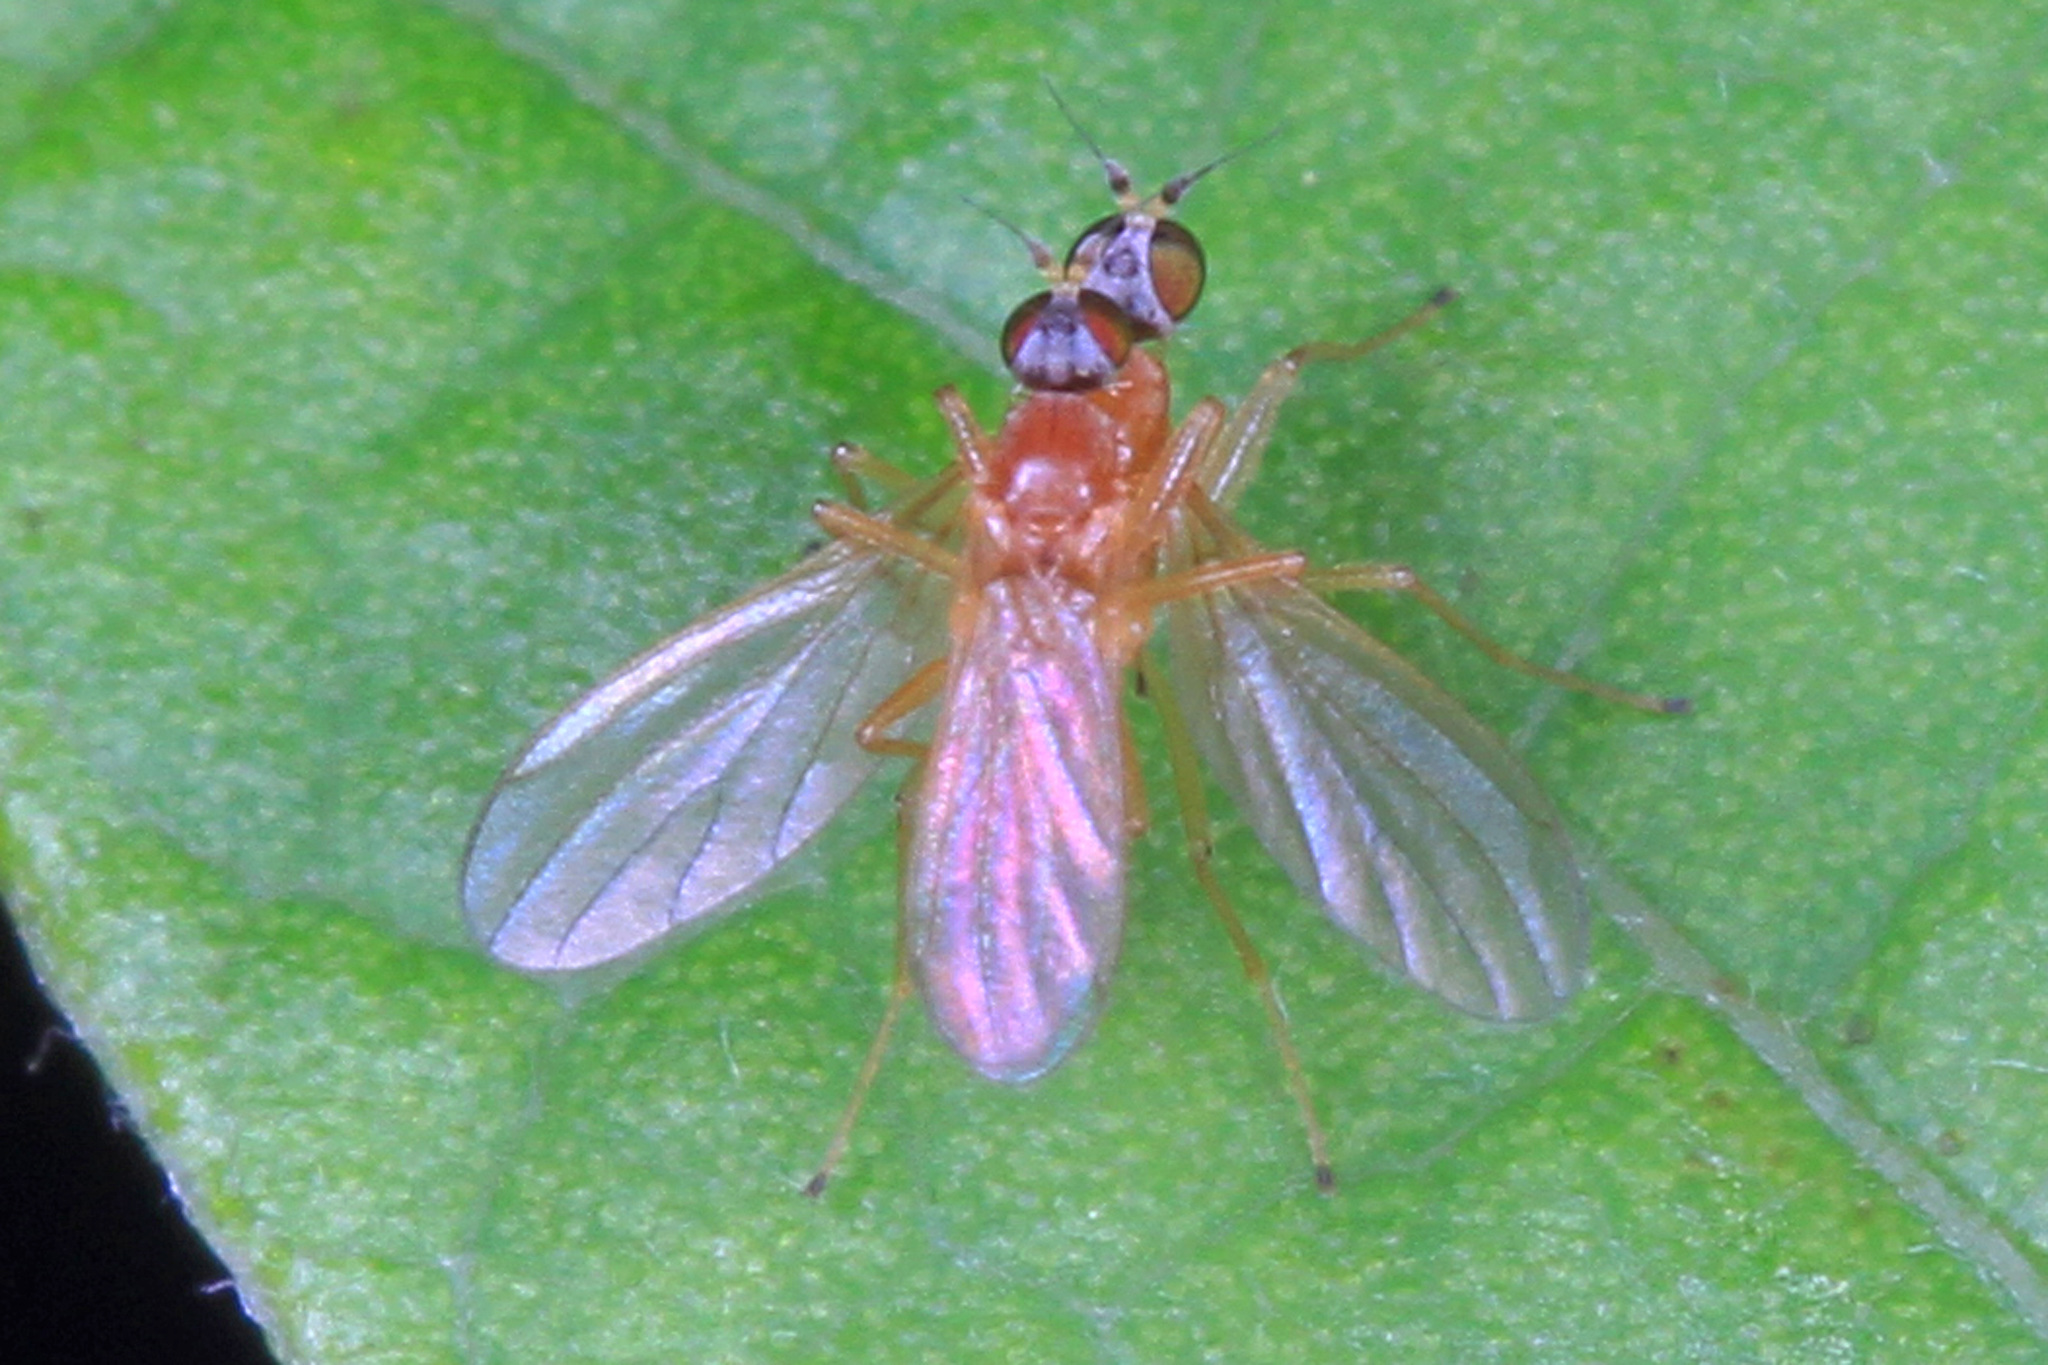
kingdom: Animalia
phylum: Arthropoda
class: Insecta
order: Diptera
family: Empididae
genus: Phyllodromia
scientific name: Phyllodromia americana
